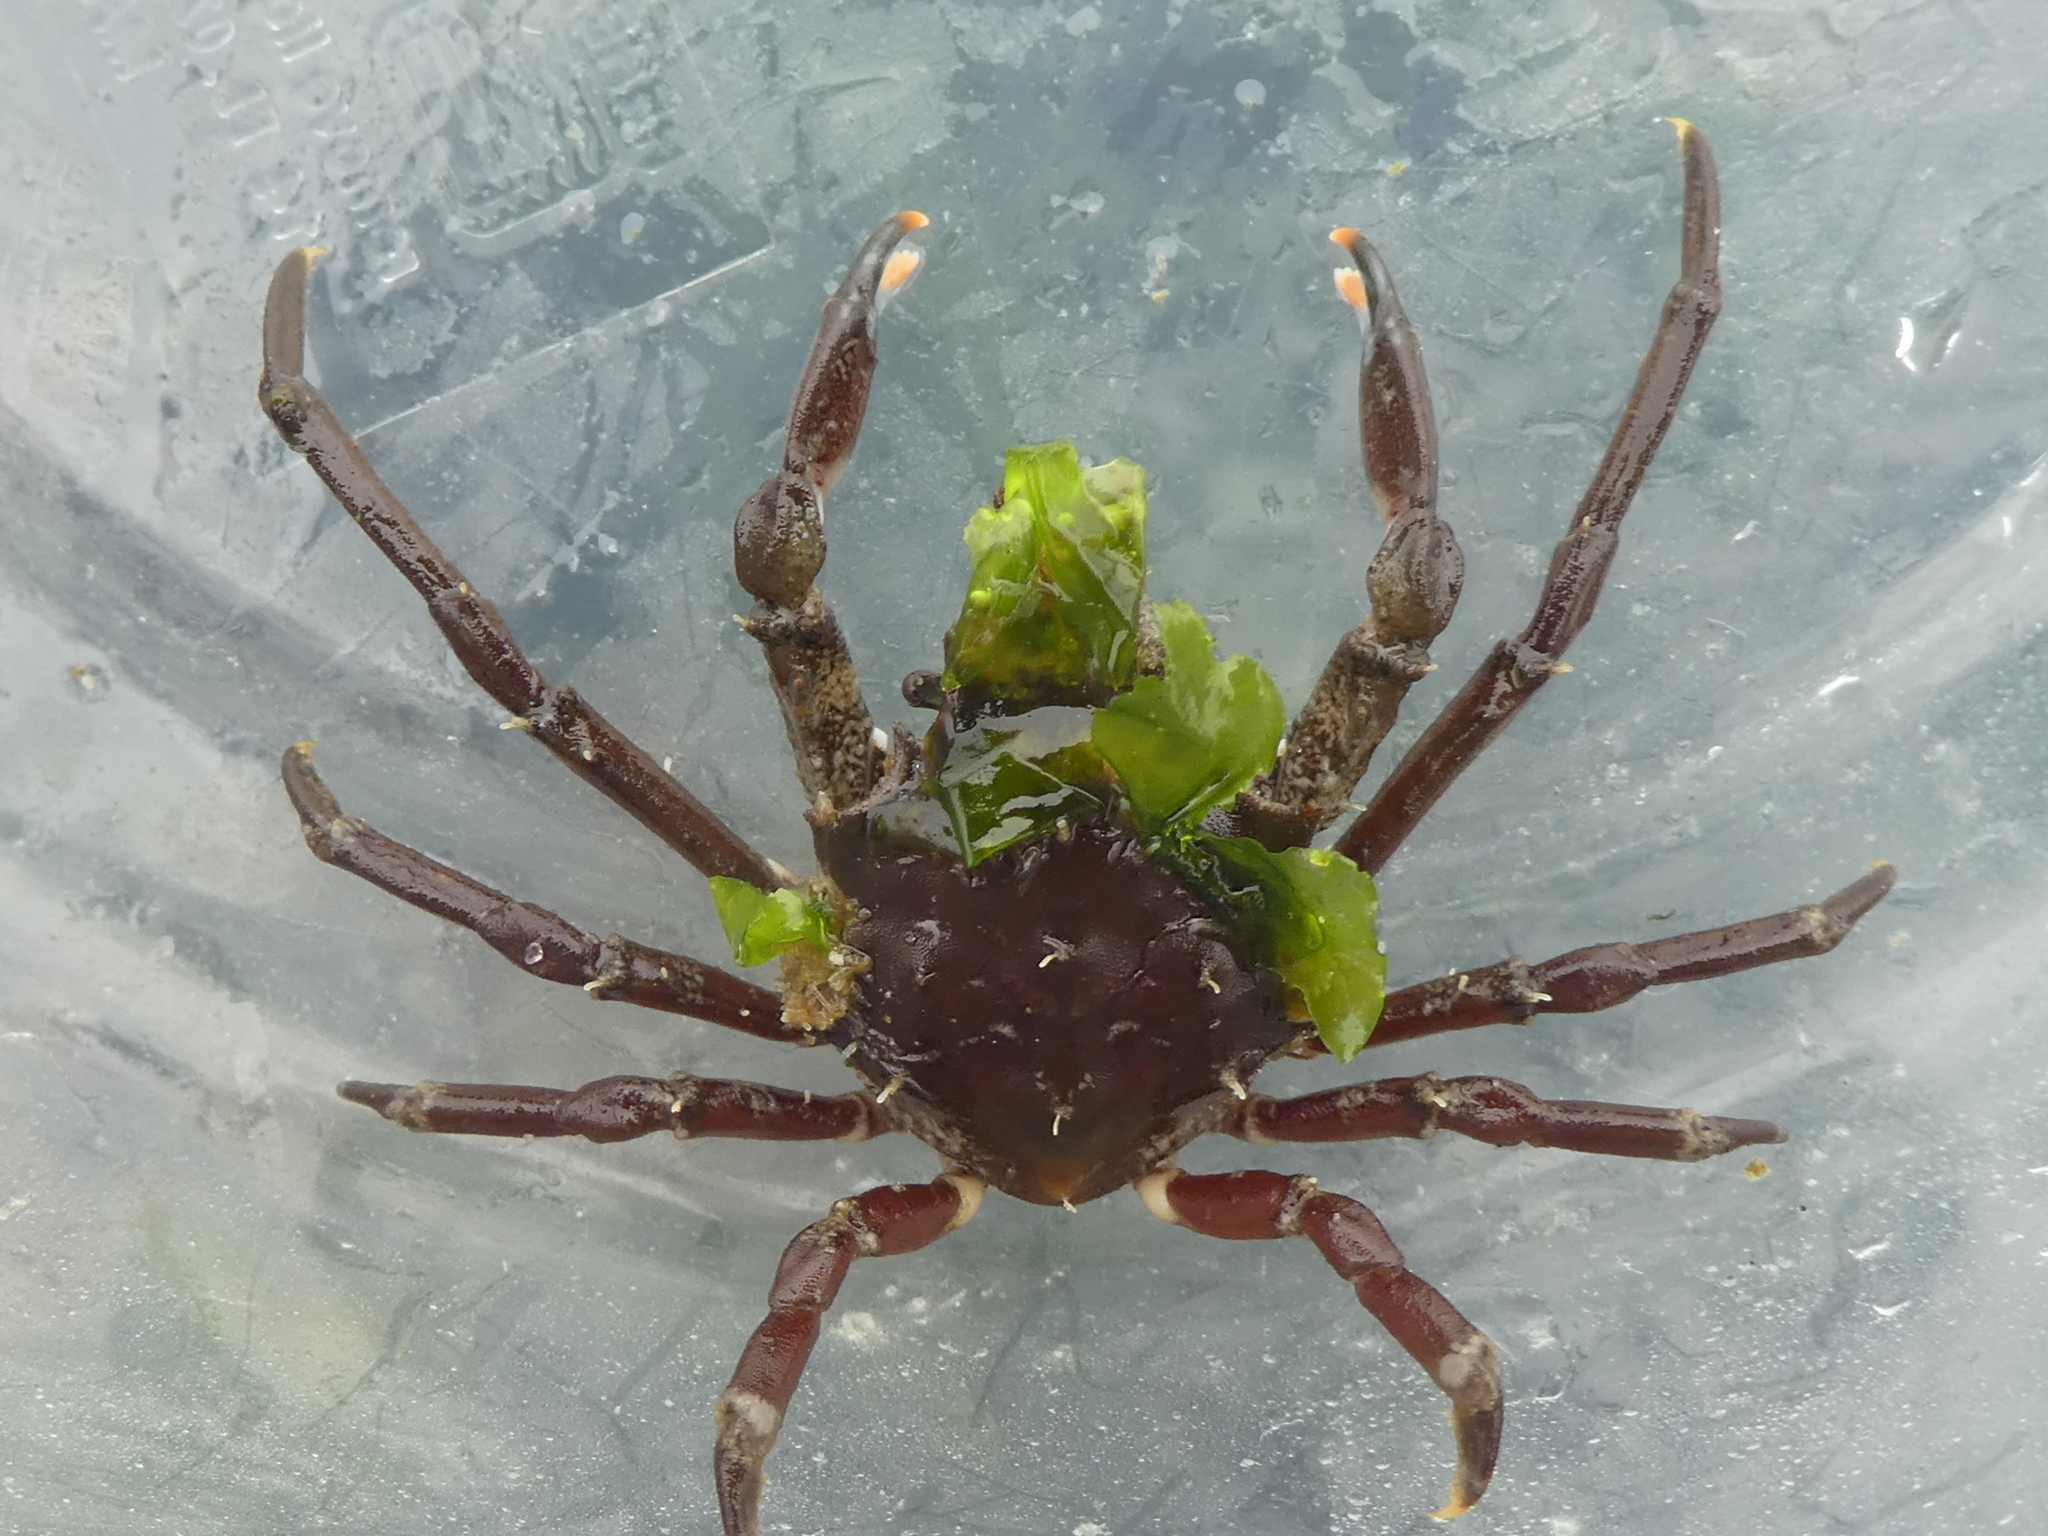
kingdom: Animalia
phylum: Arthropoda
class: Malacostraca
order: Decapoda
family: Epialtidae
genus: Pugettia
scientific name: Pugettia gracilis
